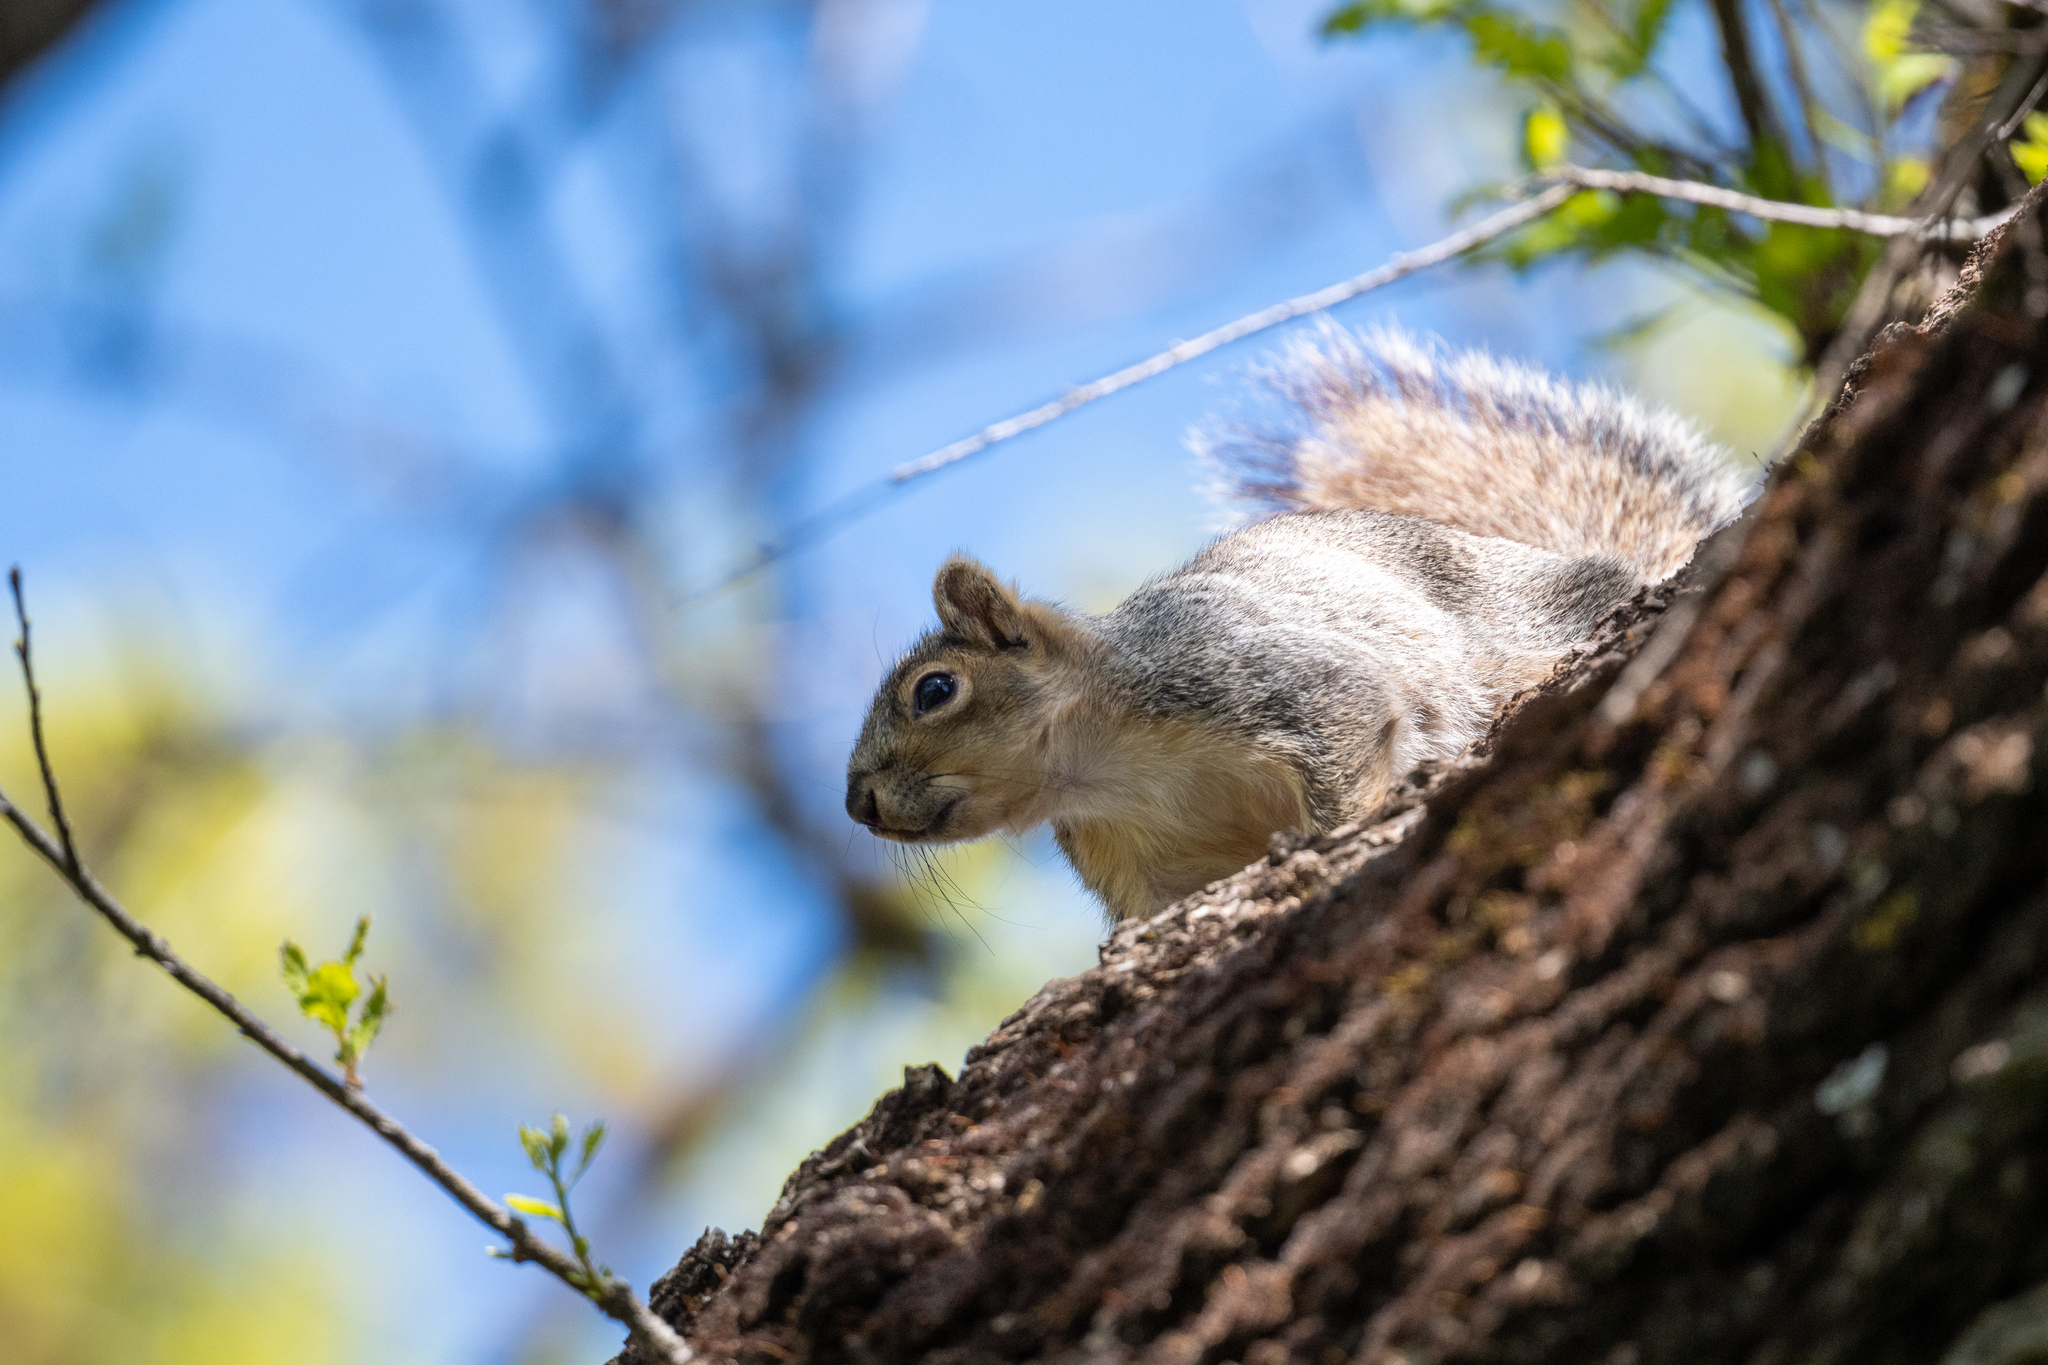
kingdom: Animalia
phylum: Chordata
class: Mammalia
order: Rodentia
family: Sciuridae
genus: Sciurus
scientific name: Sciurus niger
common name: Fox squirrel
